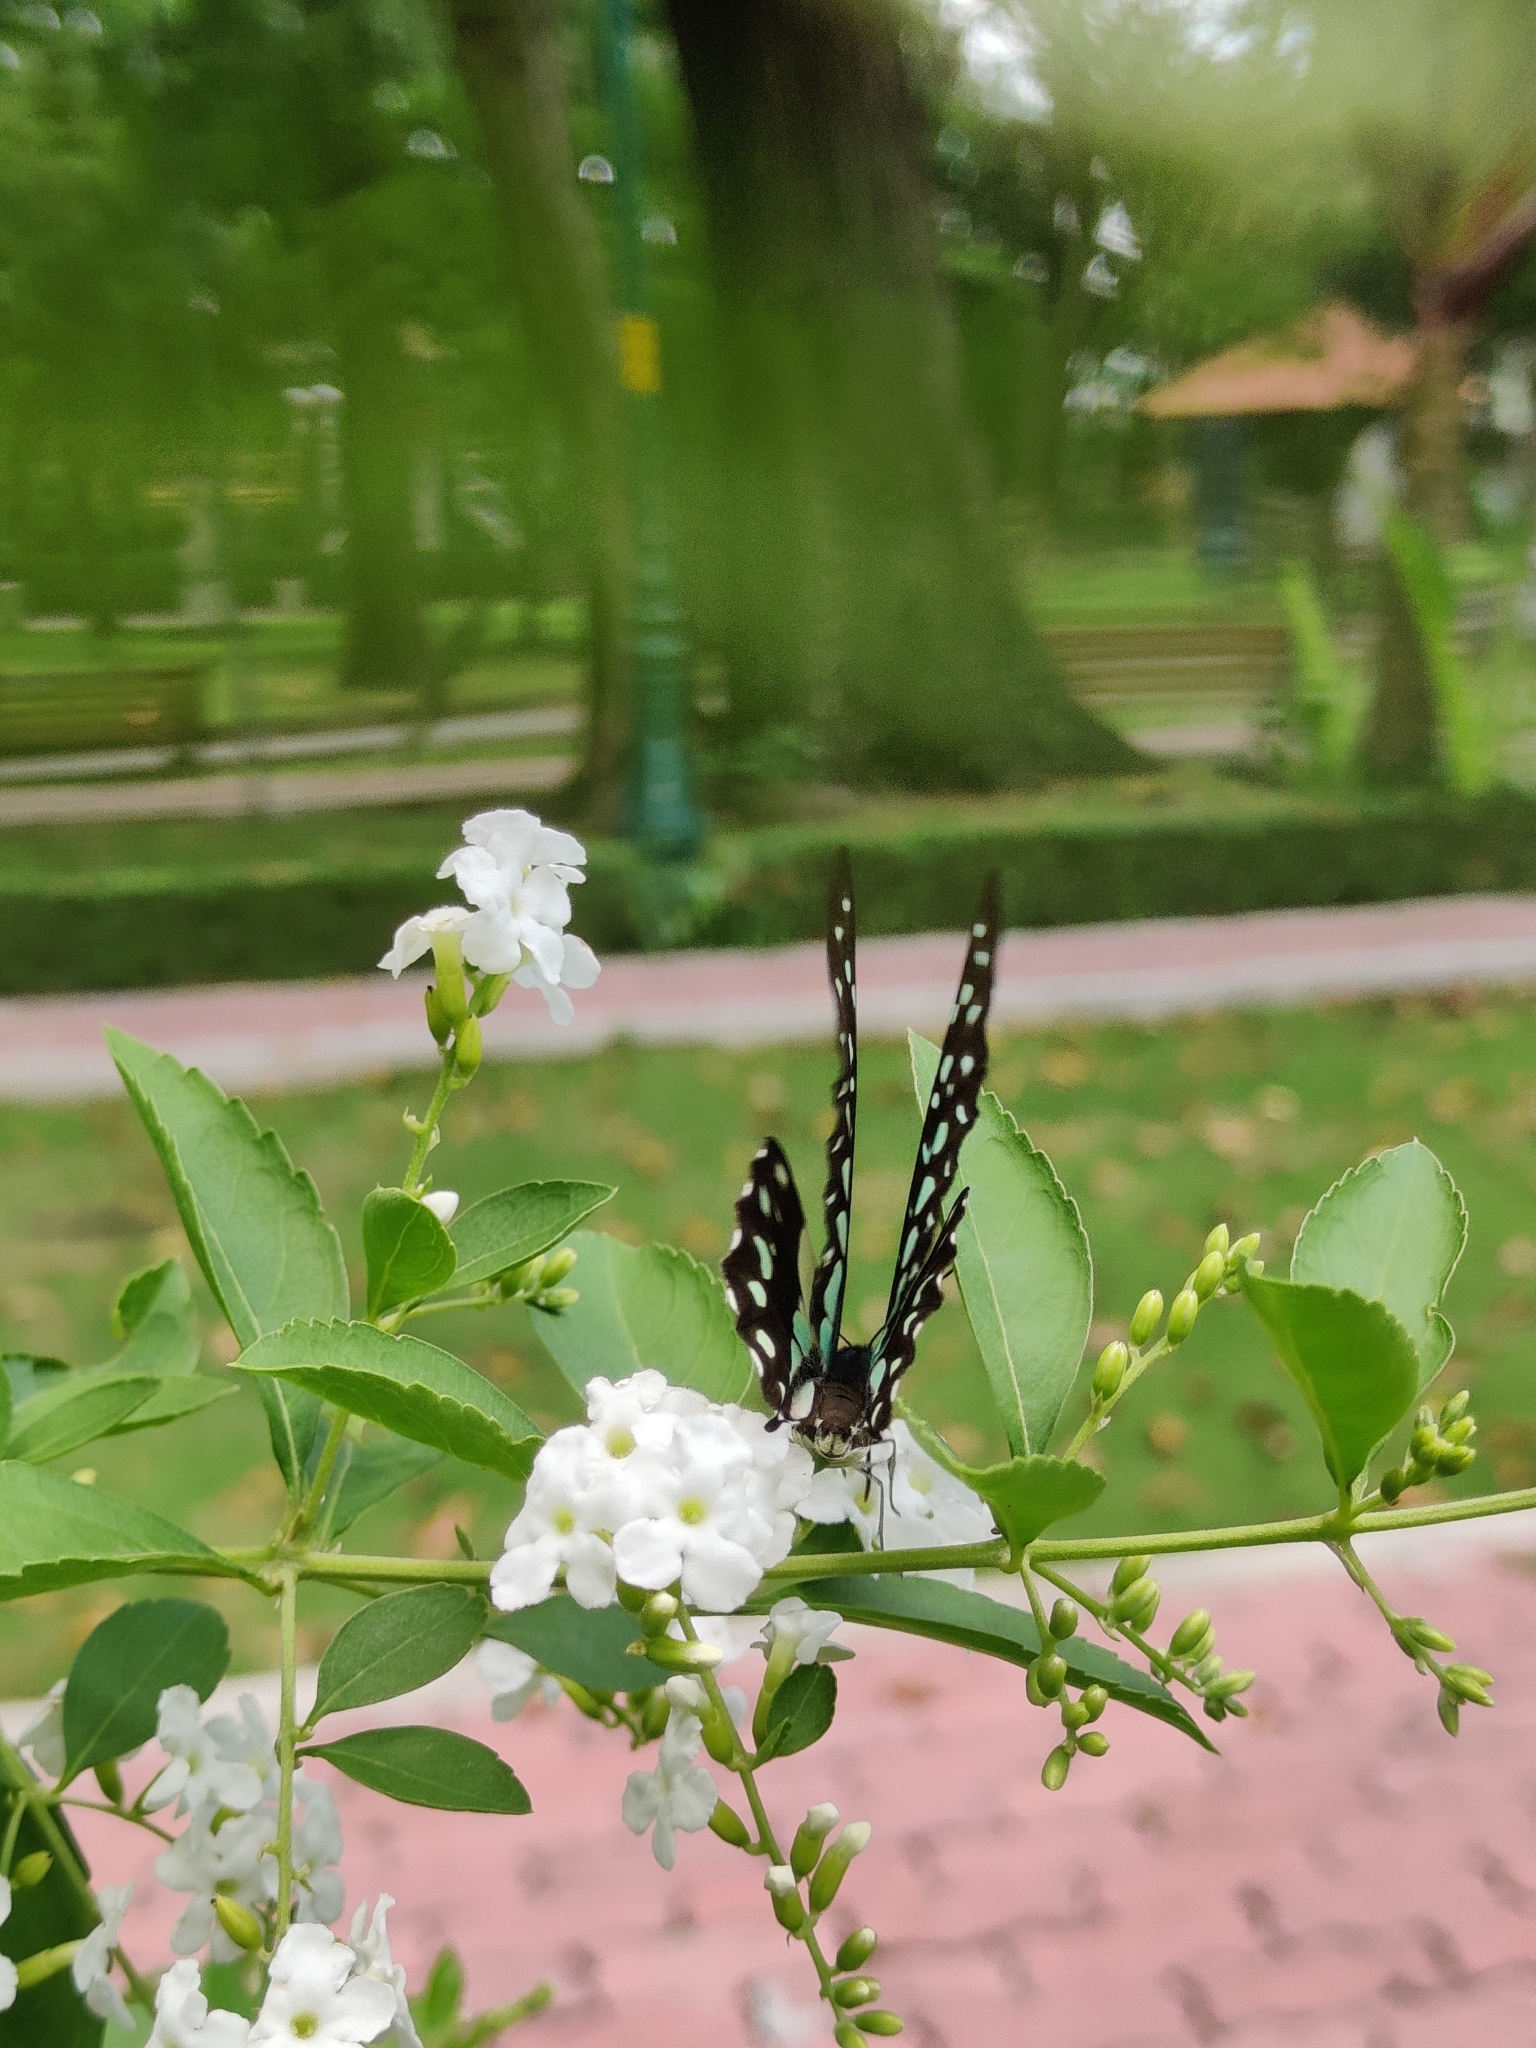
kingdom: Animalia
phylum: Arthropoda
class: Insecta
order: Lepidoptera
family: Papilionidae
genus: Graphium
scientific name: Graphium agamemnon
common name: Tailed jay
